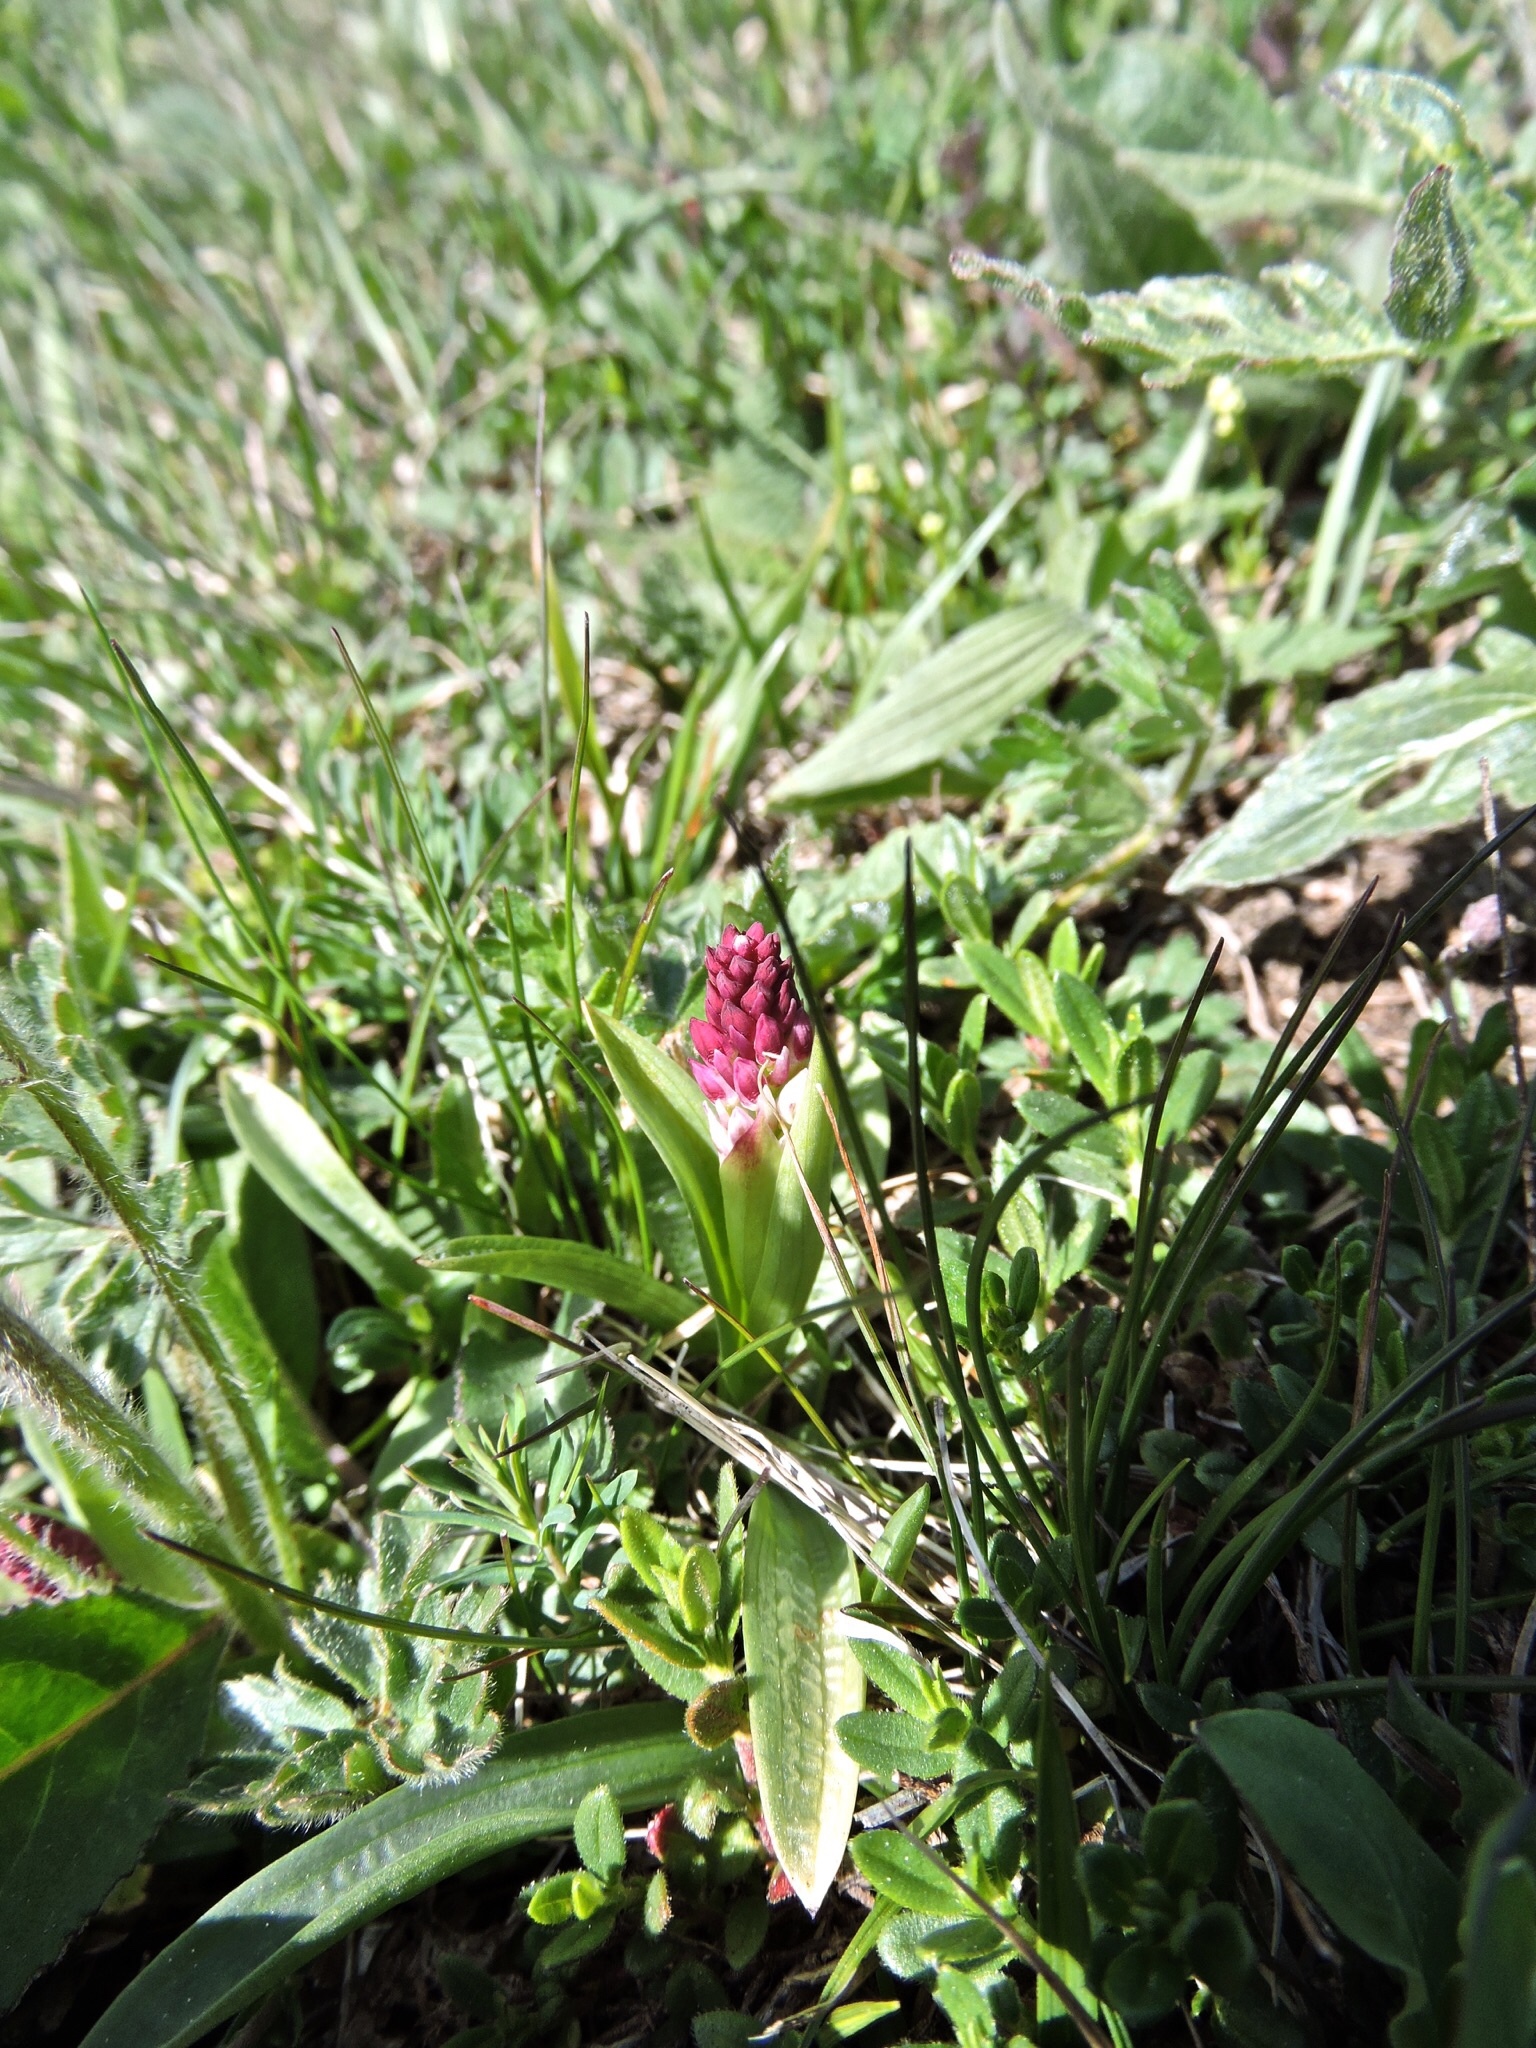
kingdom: Plantae
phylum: Tracheophyta
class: Liliopsida
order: Asparagales
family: Orchidaceae
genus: Neotinea
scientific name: Neotinea ustulata
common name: Burnt orchid
